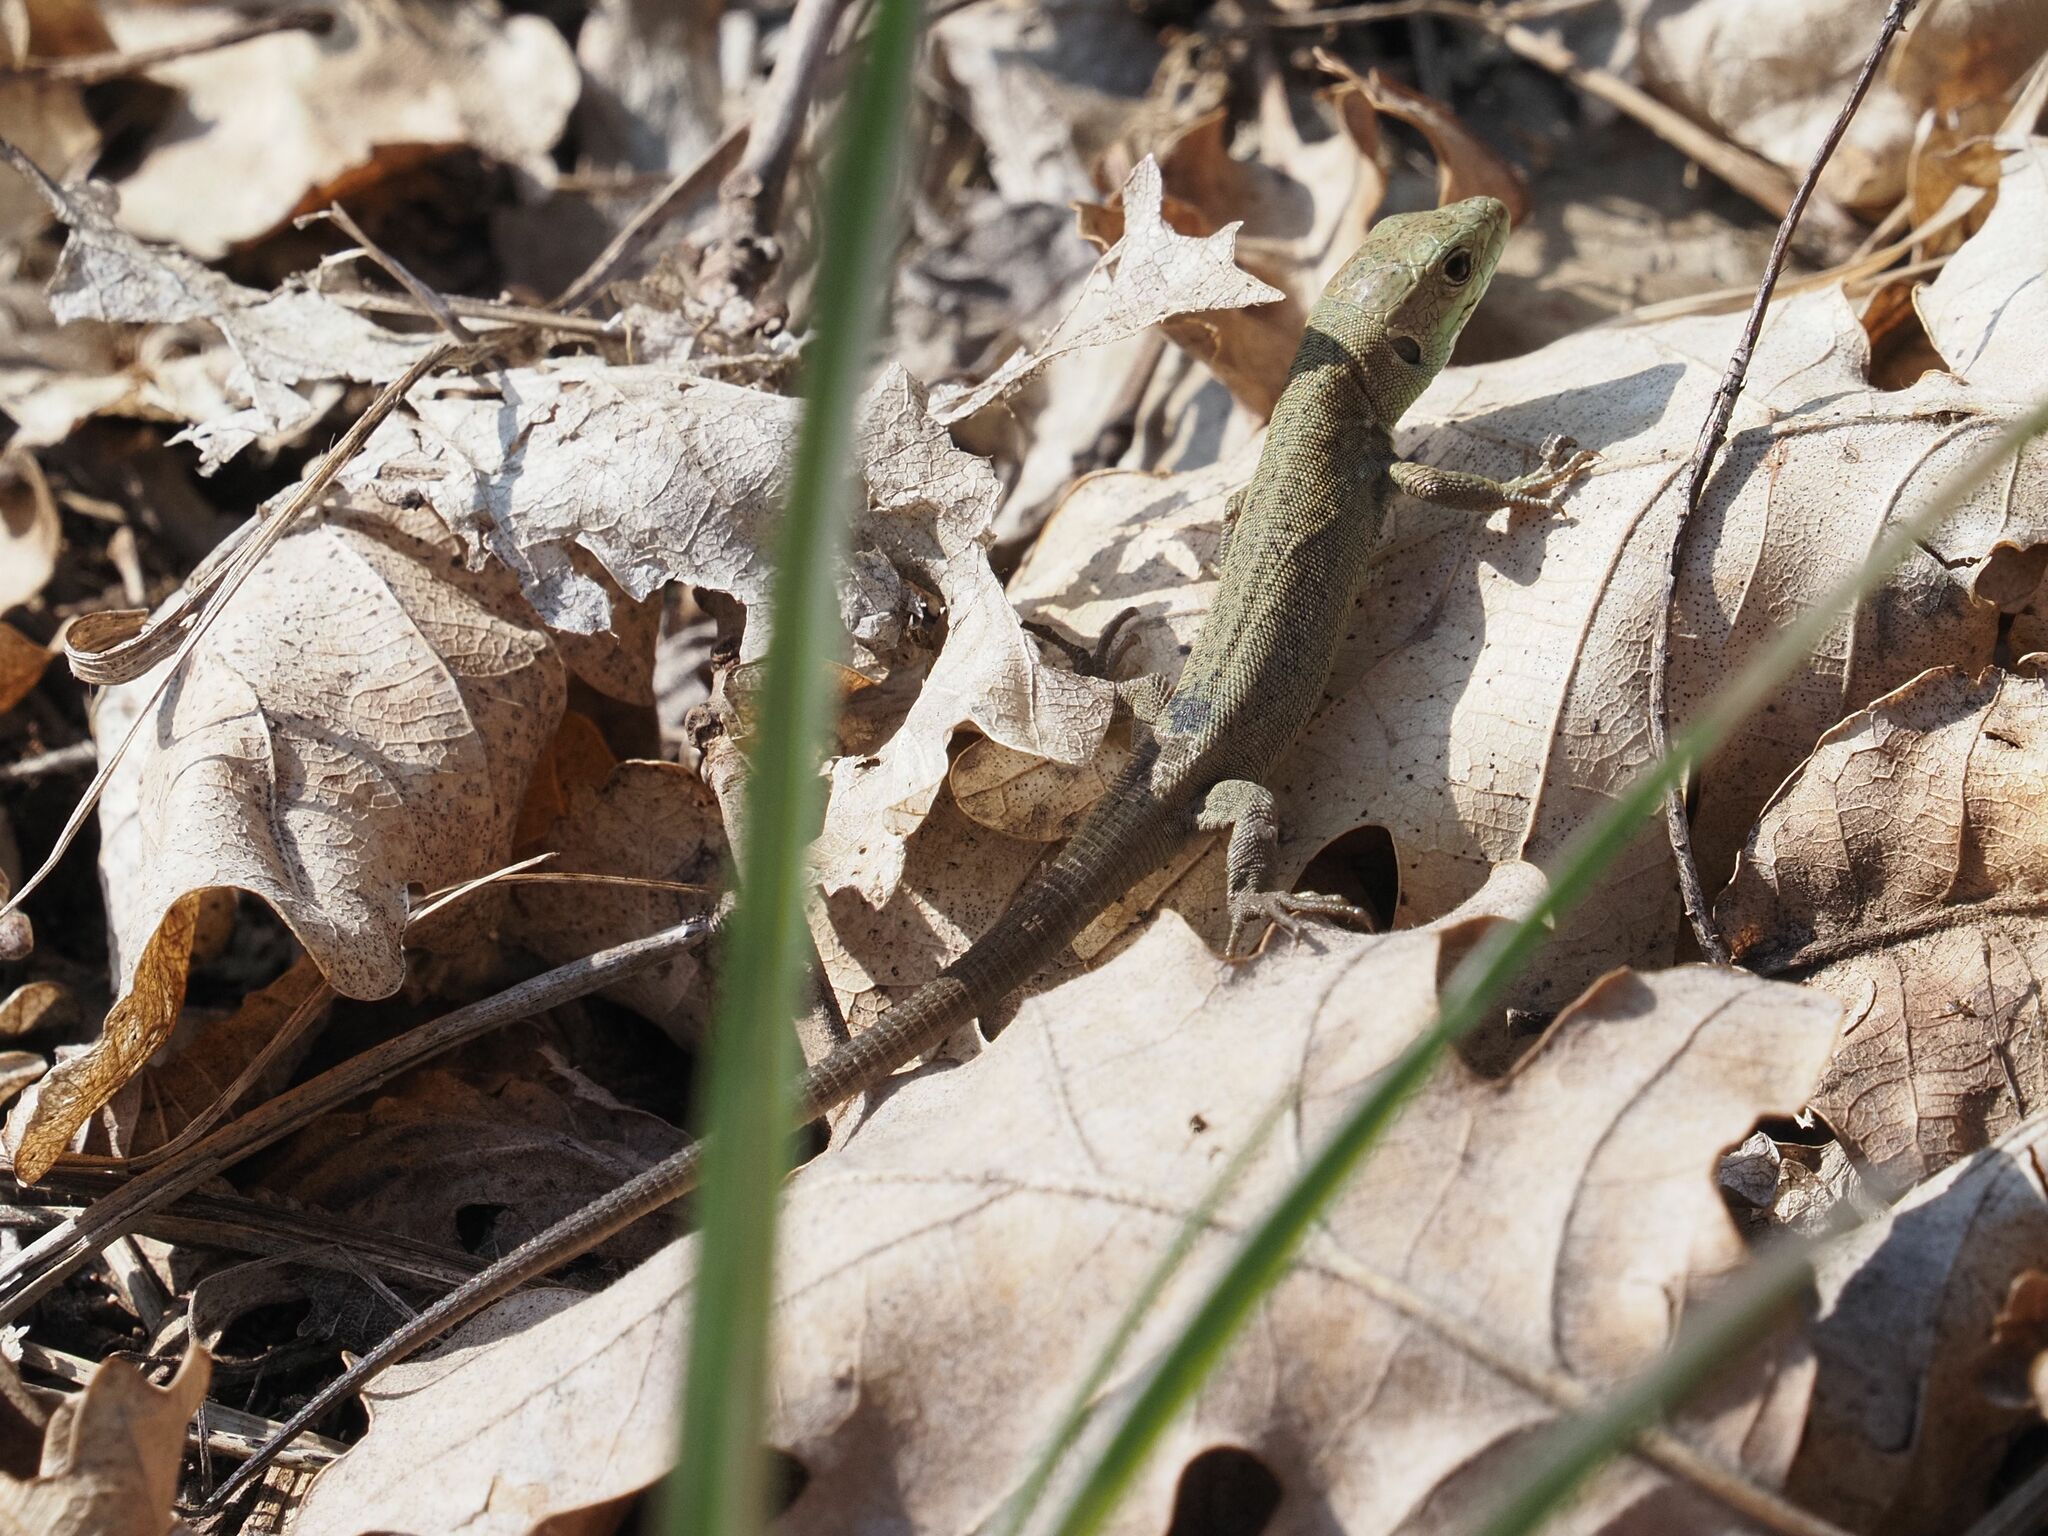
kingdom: Animalia
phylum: Chordata
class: Squamata
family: Lacertidae
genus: Lacerta
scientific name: Lacerta viridis
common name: European green lizard
